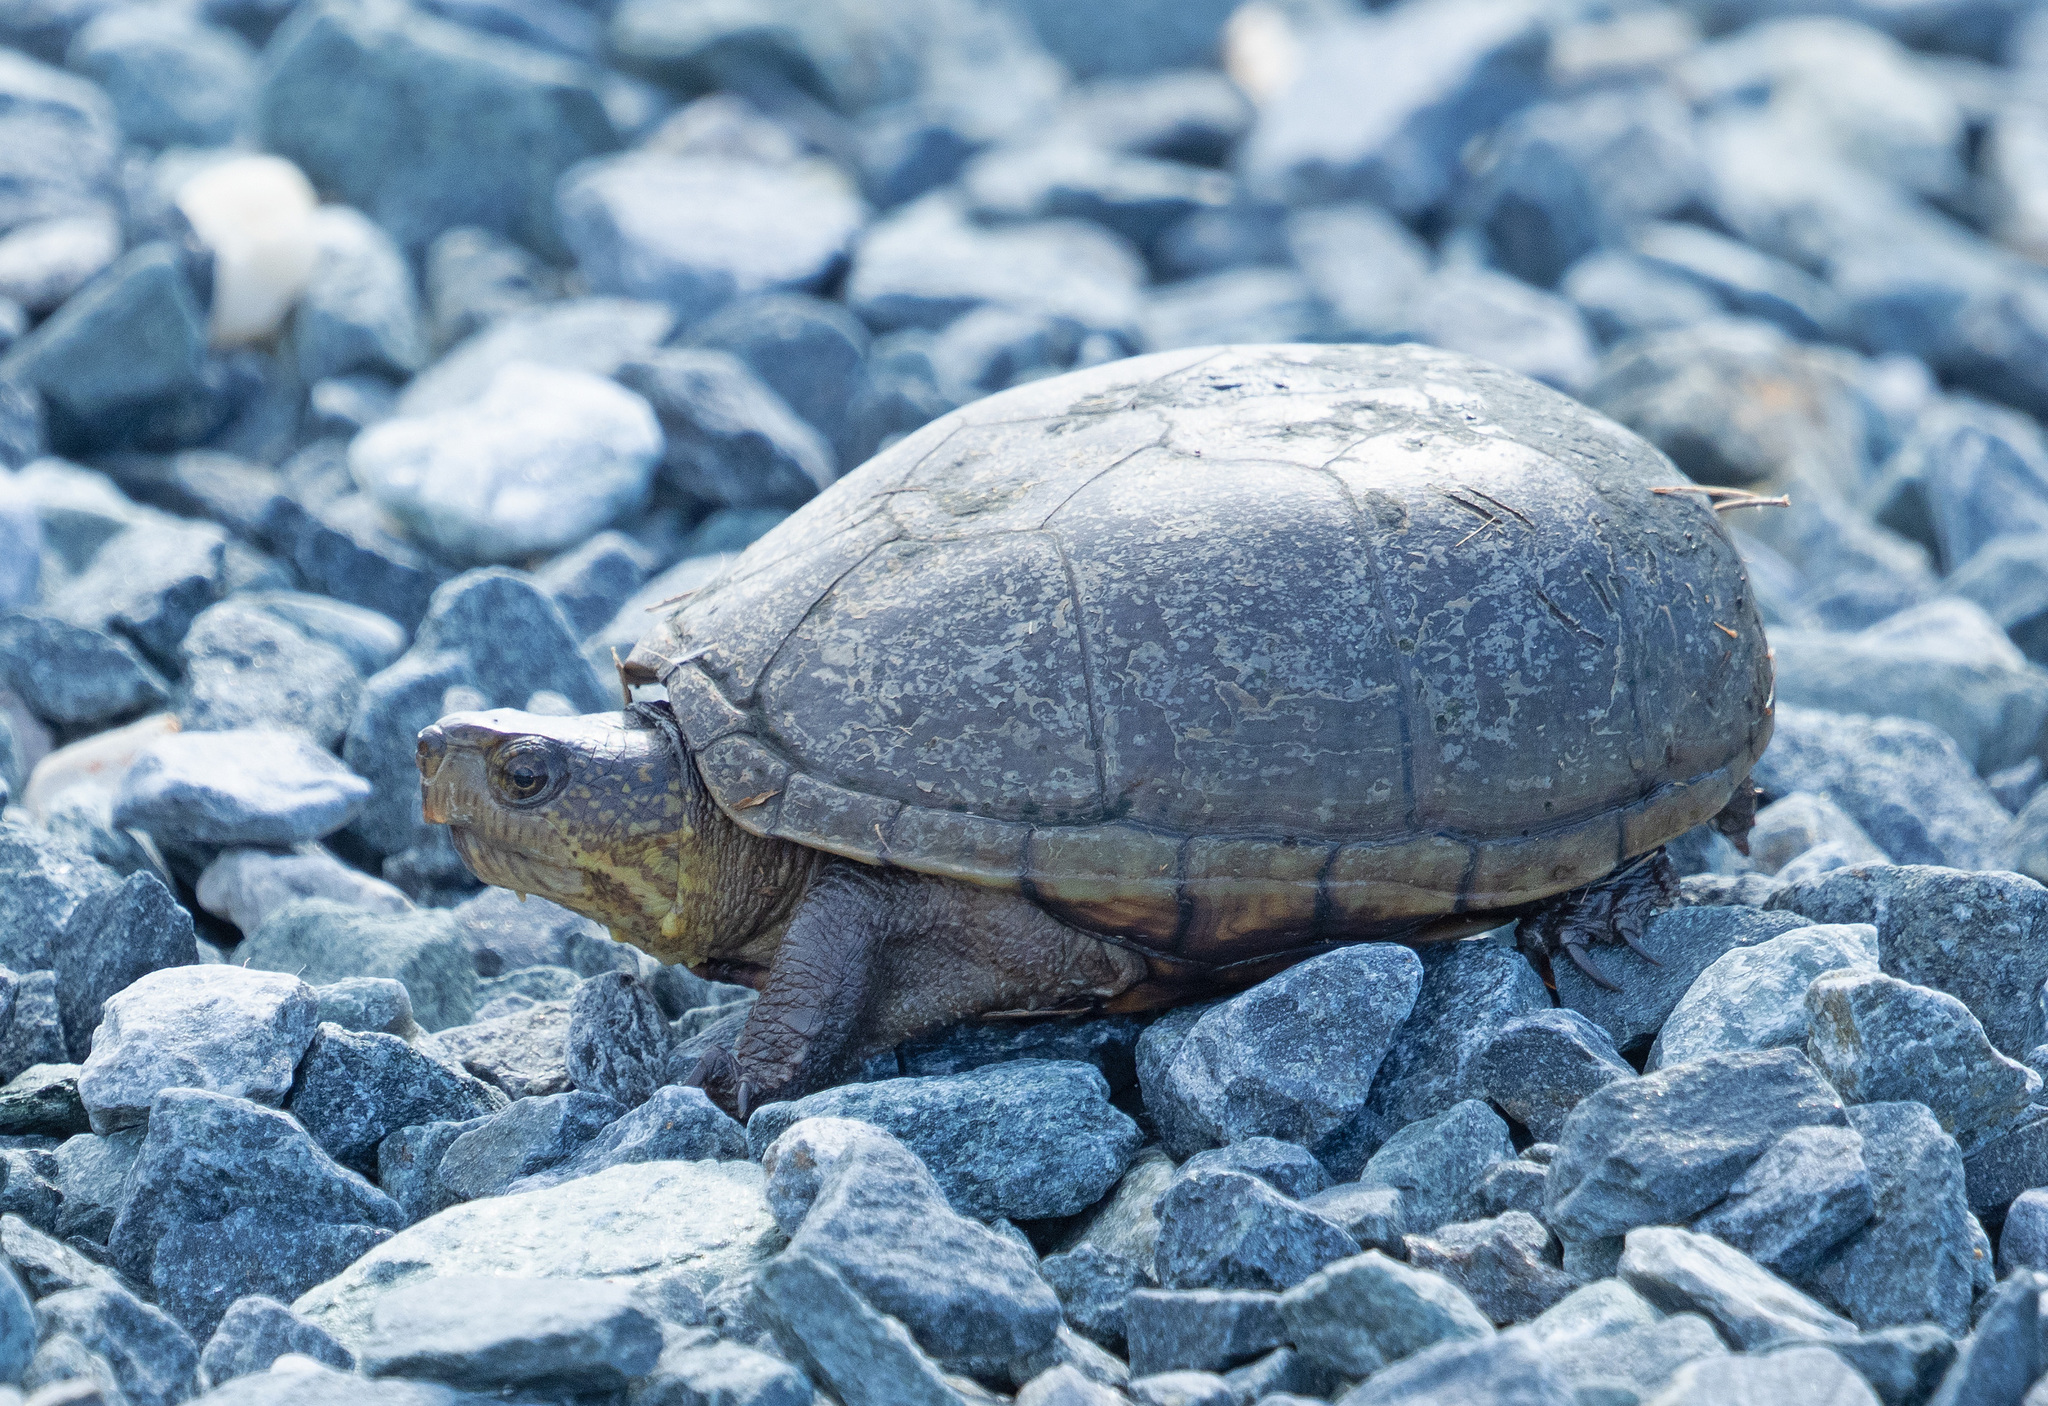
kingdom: Animalia
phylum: Chordata
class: Testudines
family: Kinosternidae
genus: Kinosternon
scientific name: Kinosternon subrubrum
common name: Eastern mud turtle
